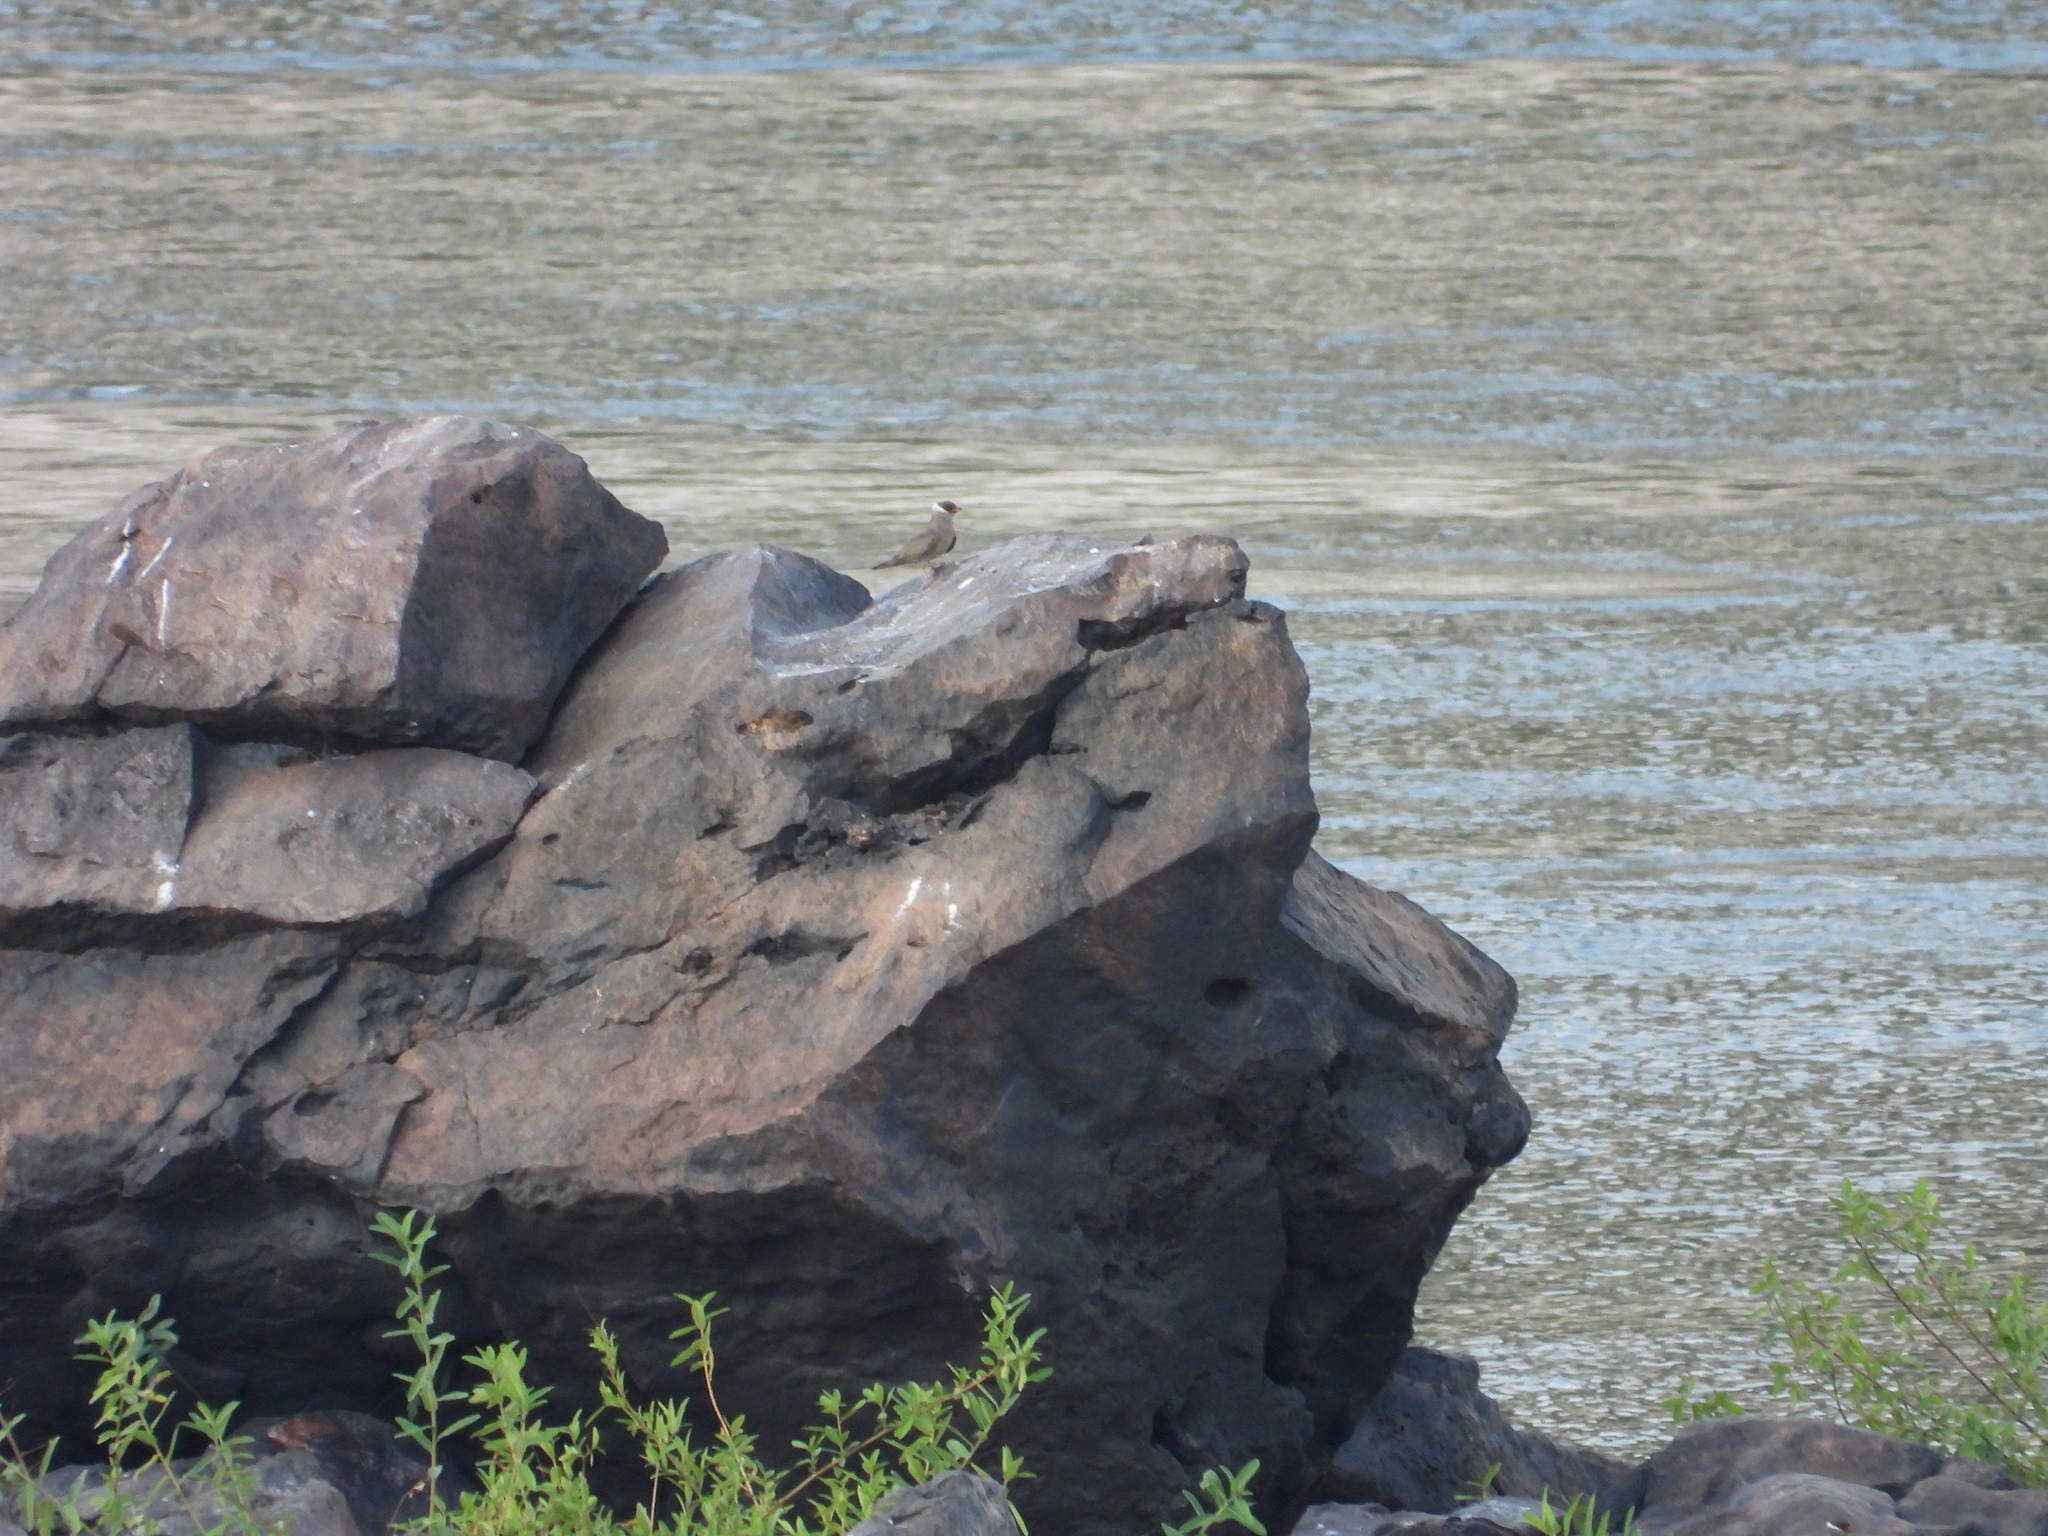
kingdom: Animalia
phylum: Chordata
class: Aves
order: Charadriiformes
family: Glareolidae
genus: Glareola
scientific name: Glareola nuchalis
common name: Rock pratincole
